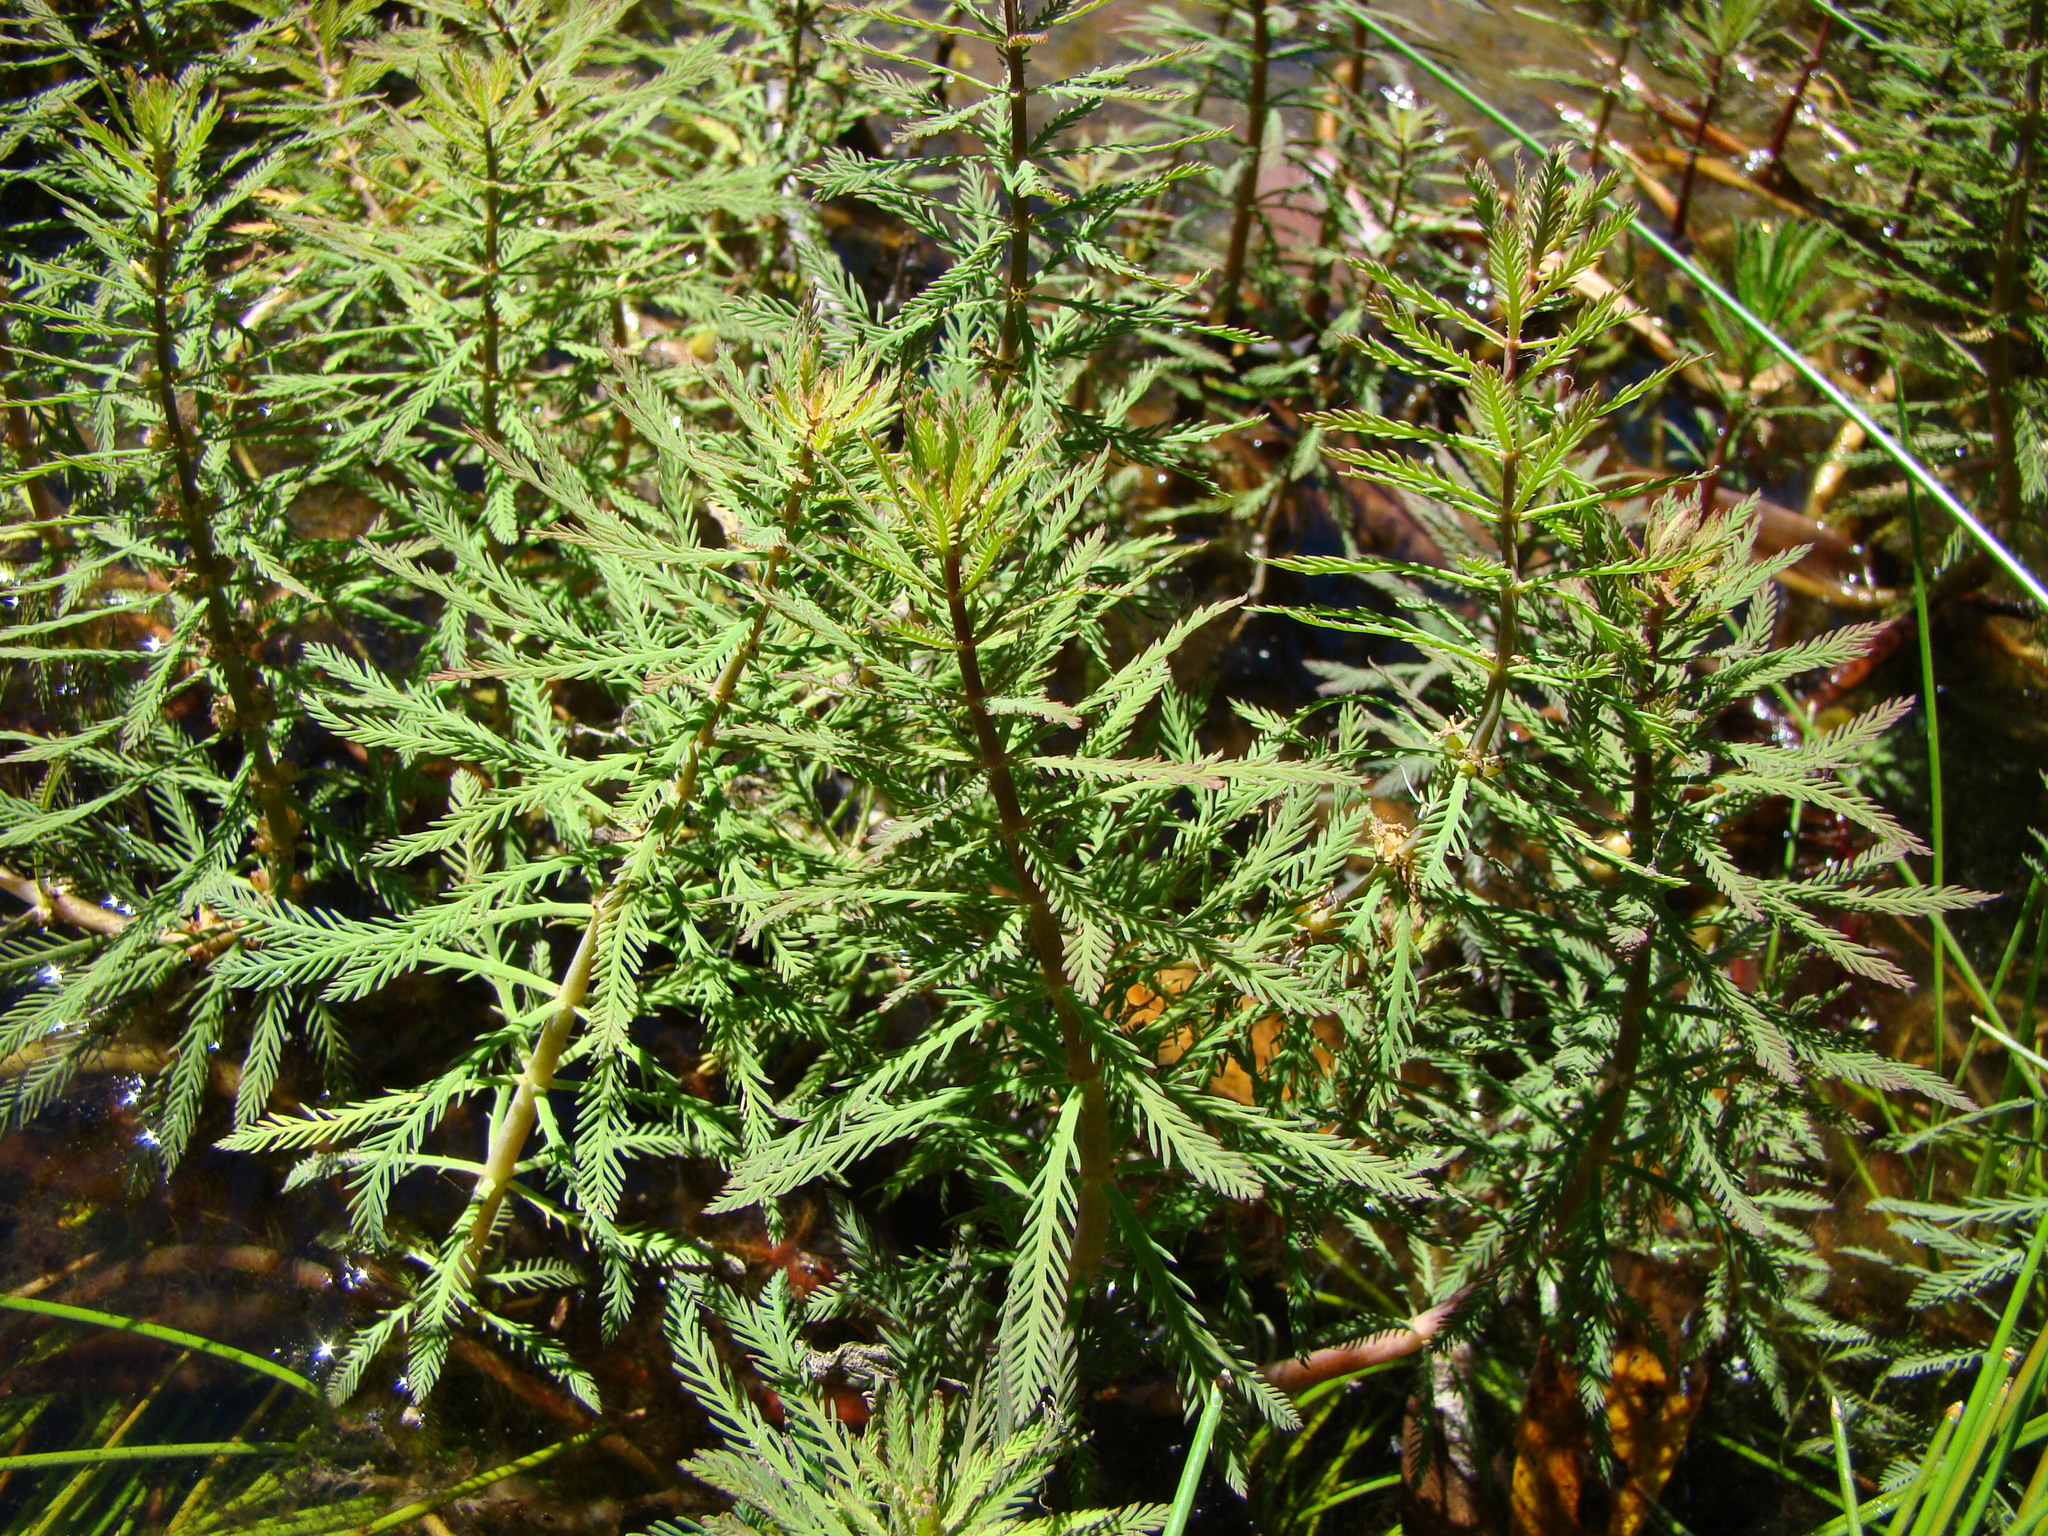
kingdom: Plantae
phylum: Tracheophyta
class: Magnoliopsida
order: Saxifragales
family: Haloragaceae
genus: Myriophyllum
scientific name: Myriophyllum robustum
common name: Stout water milfoil
